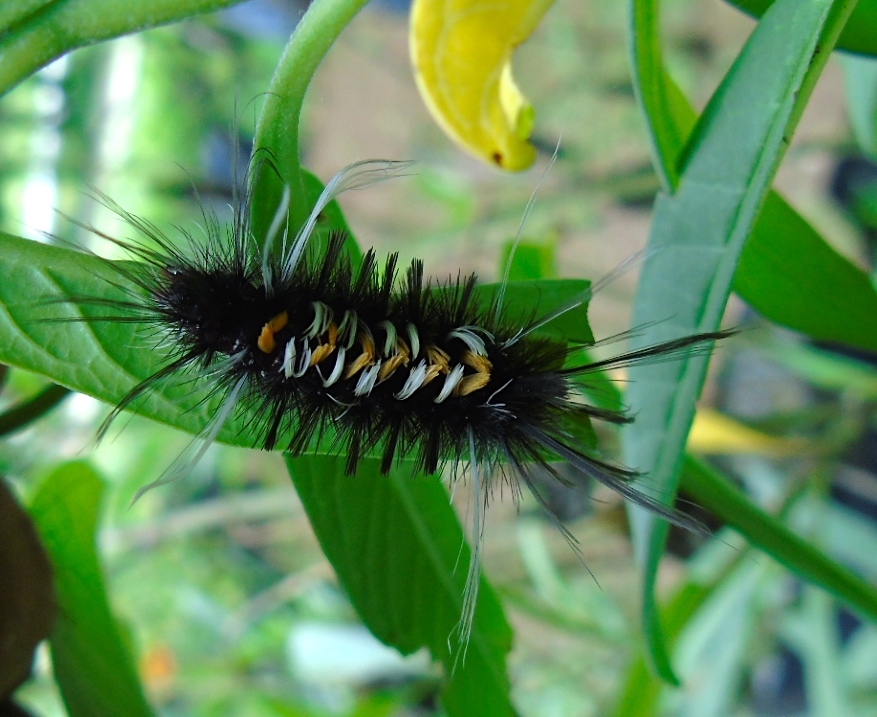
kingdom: Animalia
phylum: Arthropoda
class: Insecta
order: Lepidoptera
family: Erebidae
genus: Euchaetes
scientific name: Euchaetes
